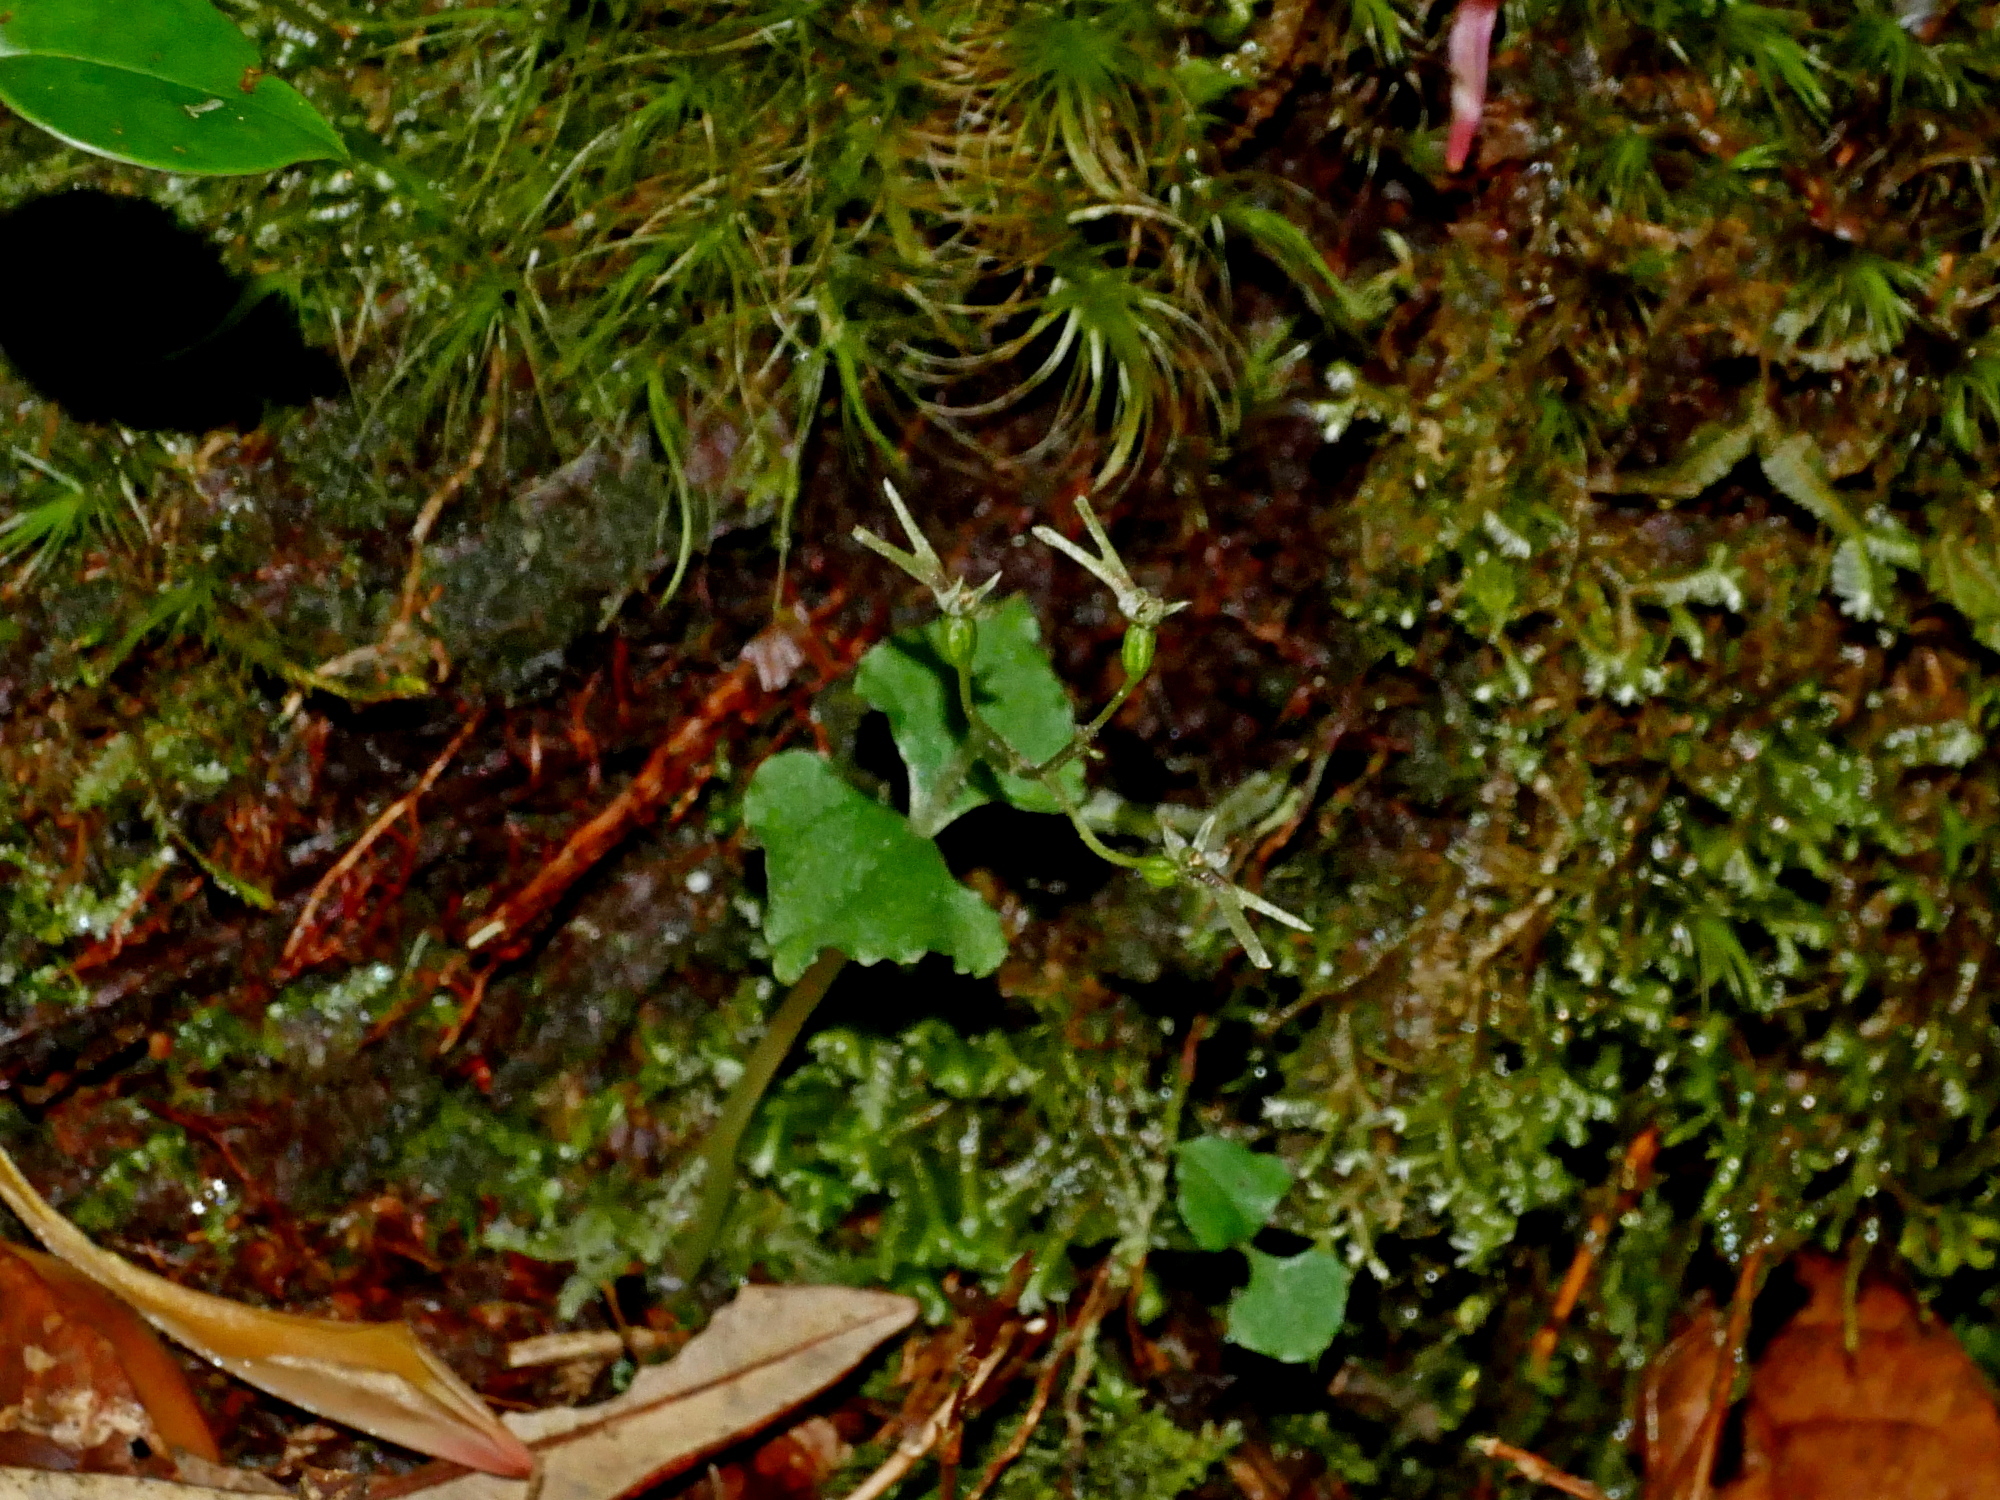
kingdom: Plantae
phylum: Tracheophyta
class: Liliopsida
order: Asparagales
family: Orchidaceae
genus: Neottia
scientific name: Neottia japonica
